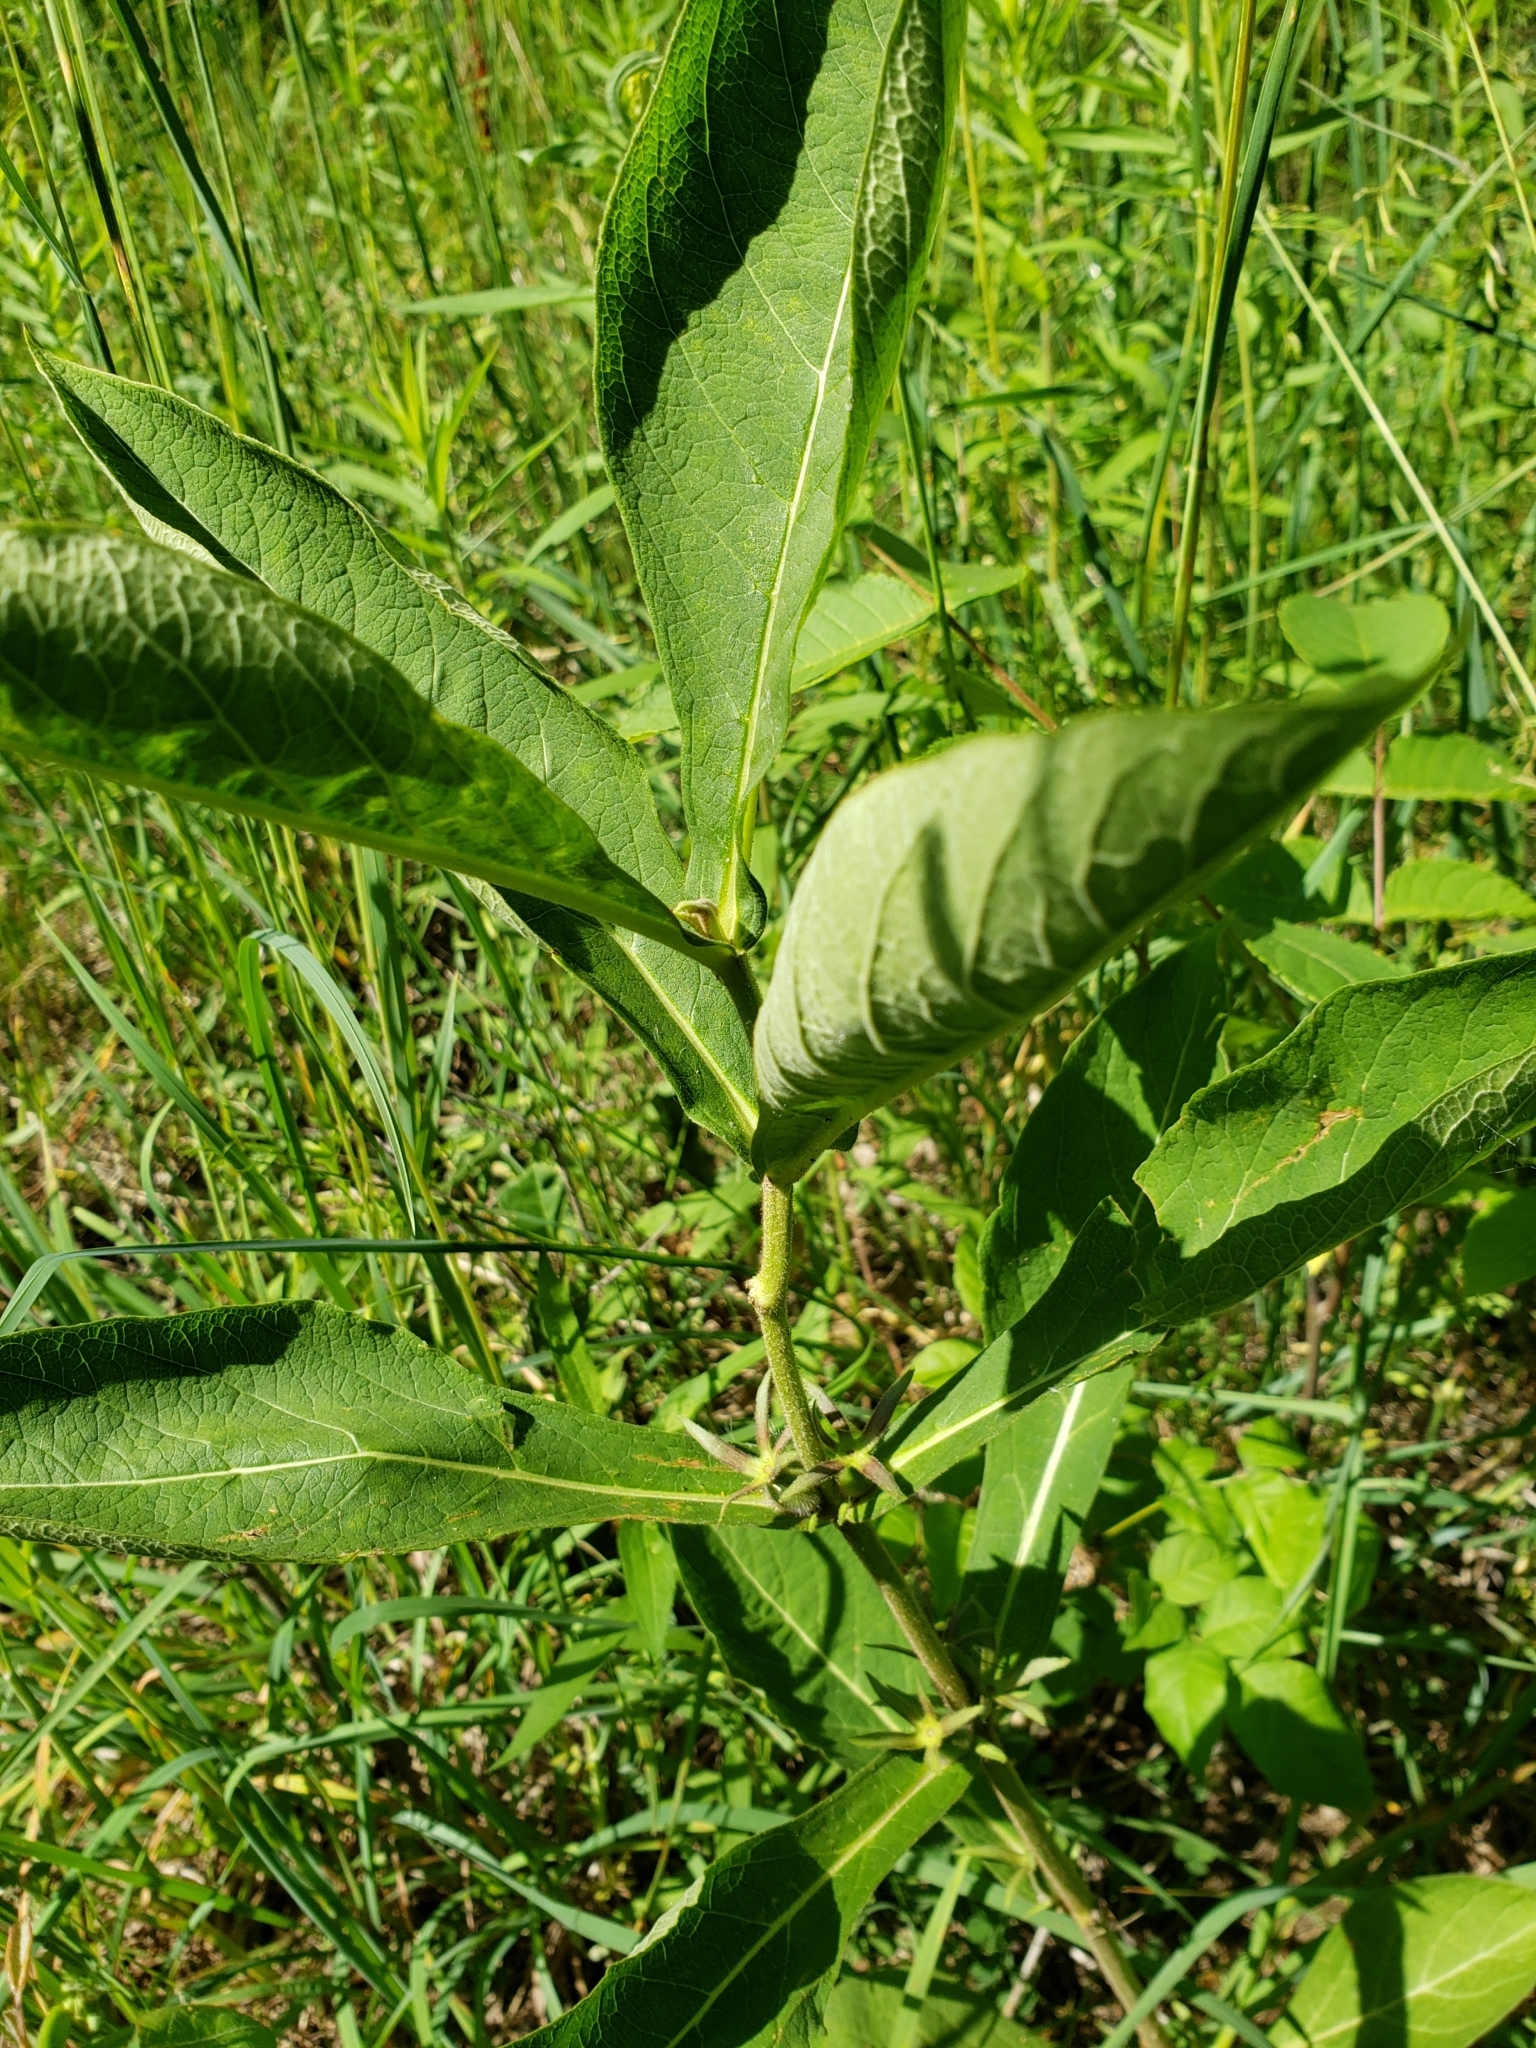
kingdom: Plantae
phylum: Tracheophyta
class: Magnoliopsida
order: Dipsacales
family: Caprifoliaceae
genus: Triosteum
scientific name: Triosteum aurantiacum
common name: Coffee tinker's-weed
